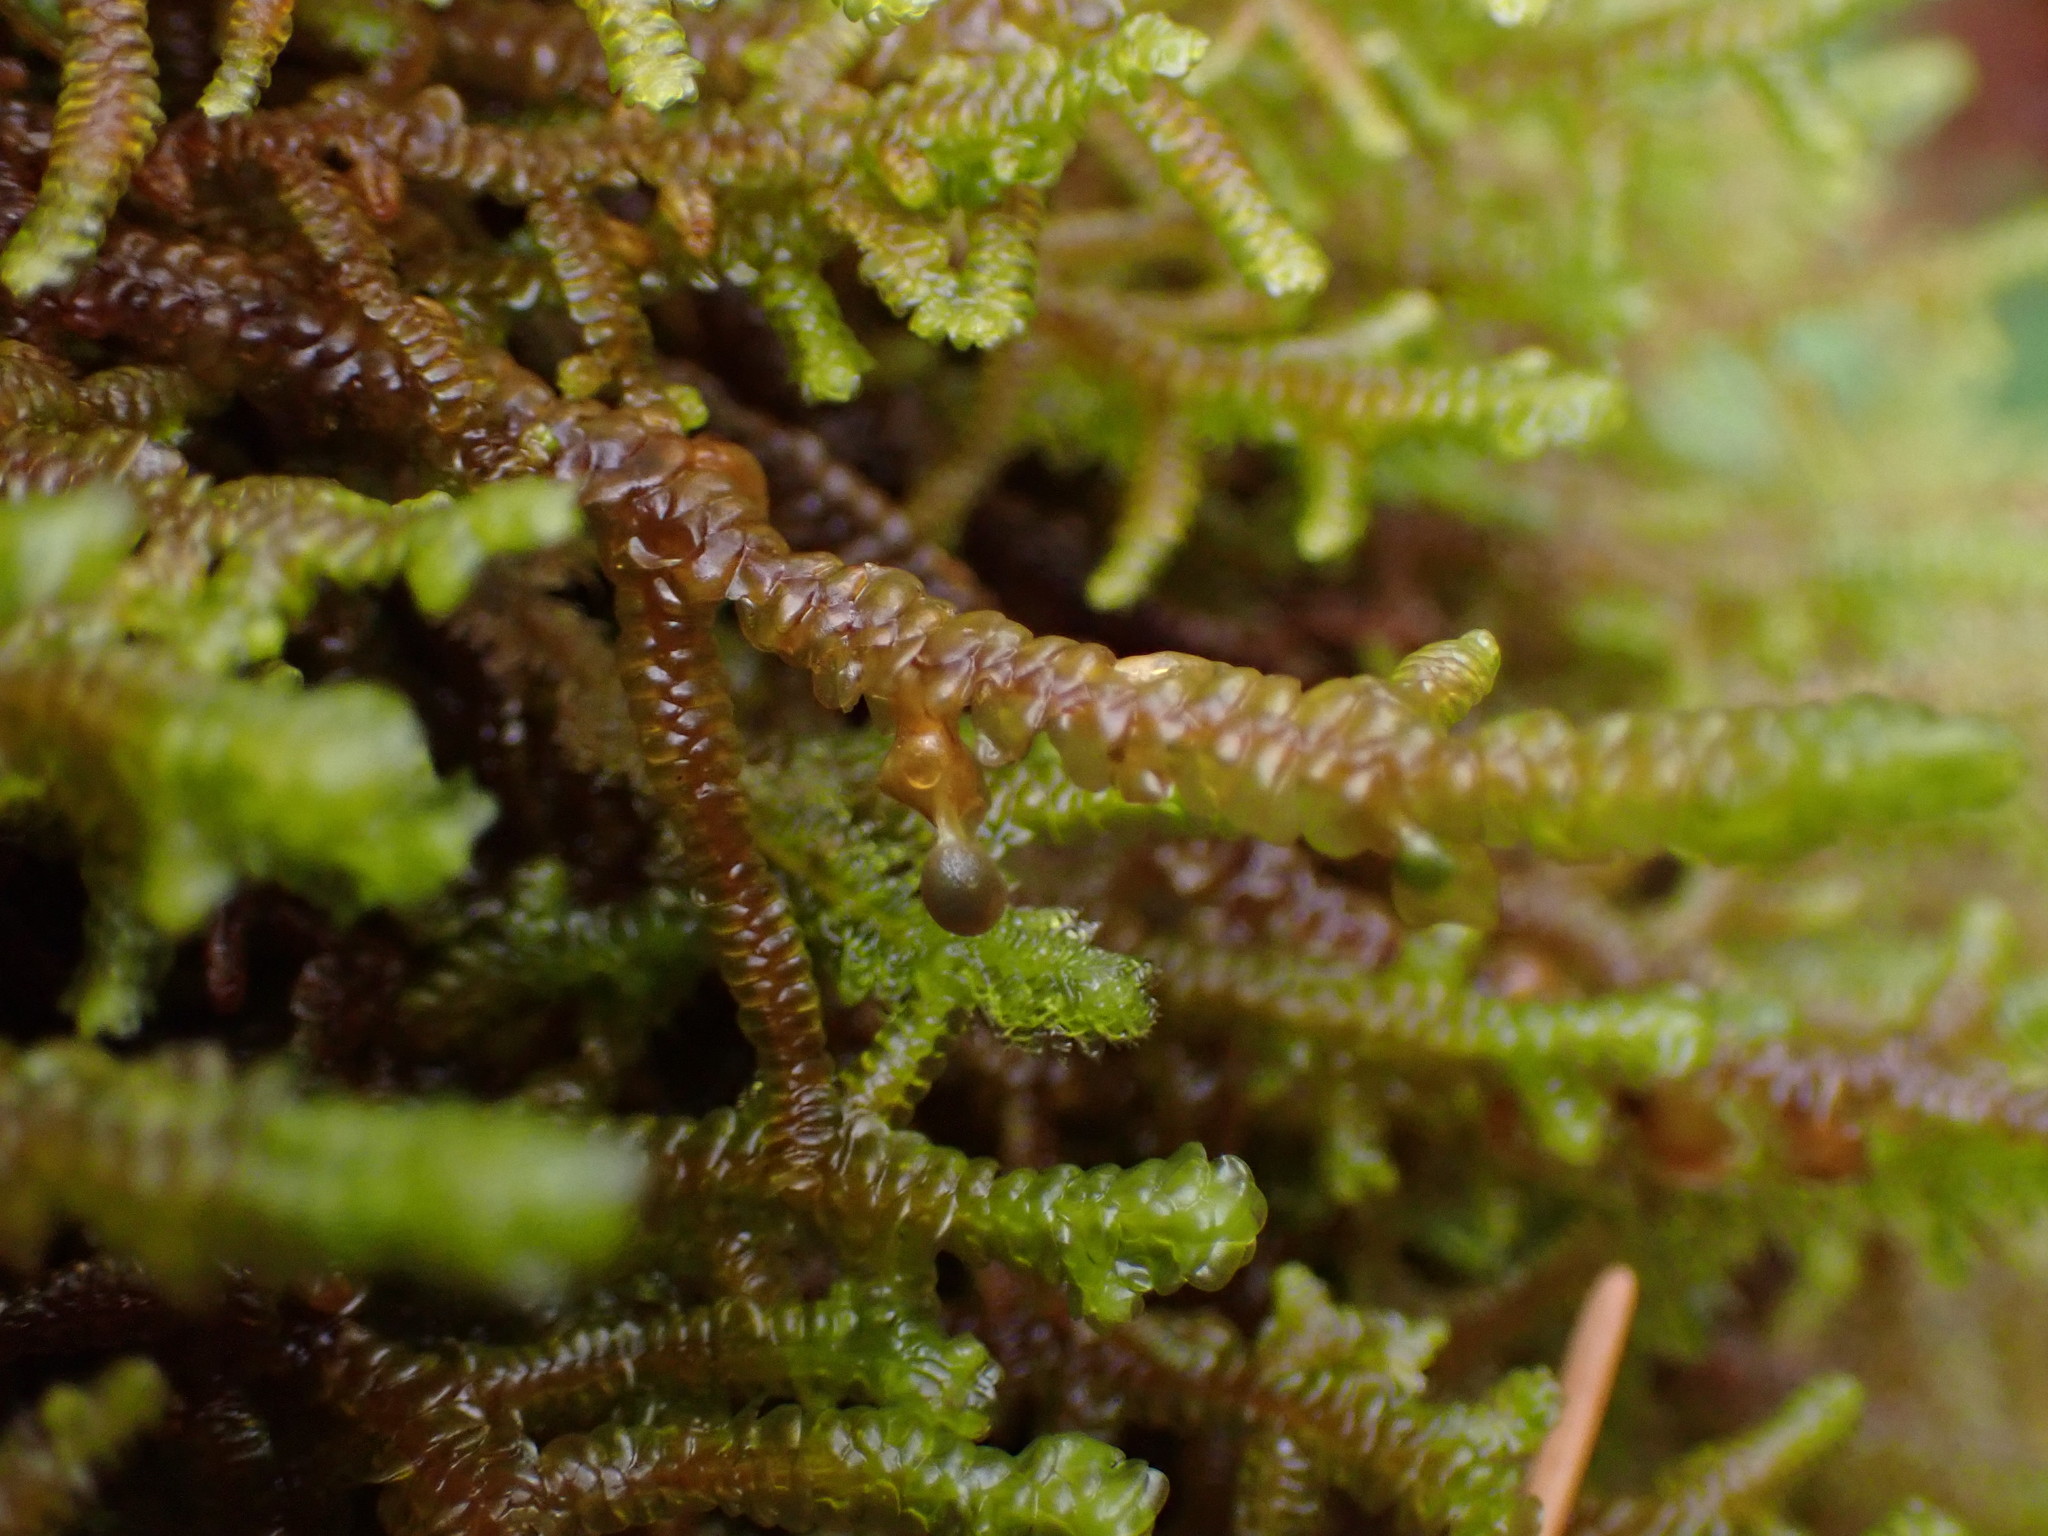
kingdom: Plantae
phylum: Marchantiophyta
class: Jungermanniopsida
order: Porellales
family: Porellaceae
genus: Porella
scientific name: Porella navicularis
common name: Tree ruffle liverwort
